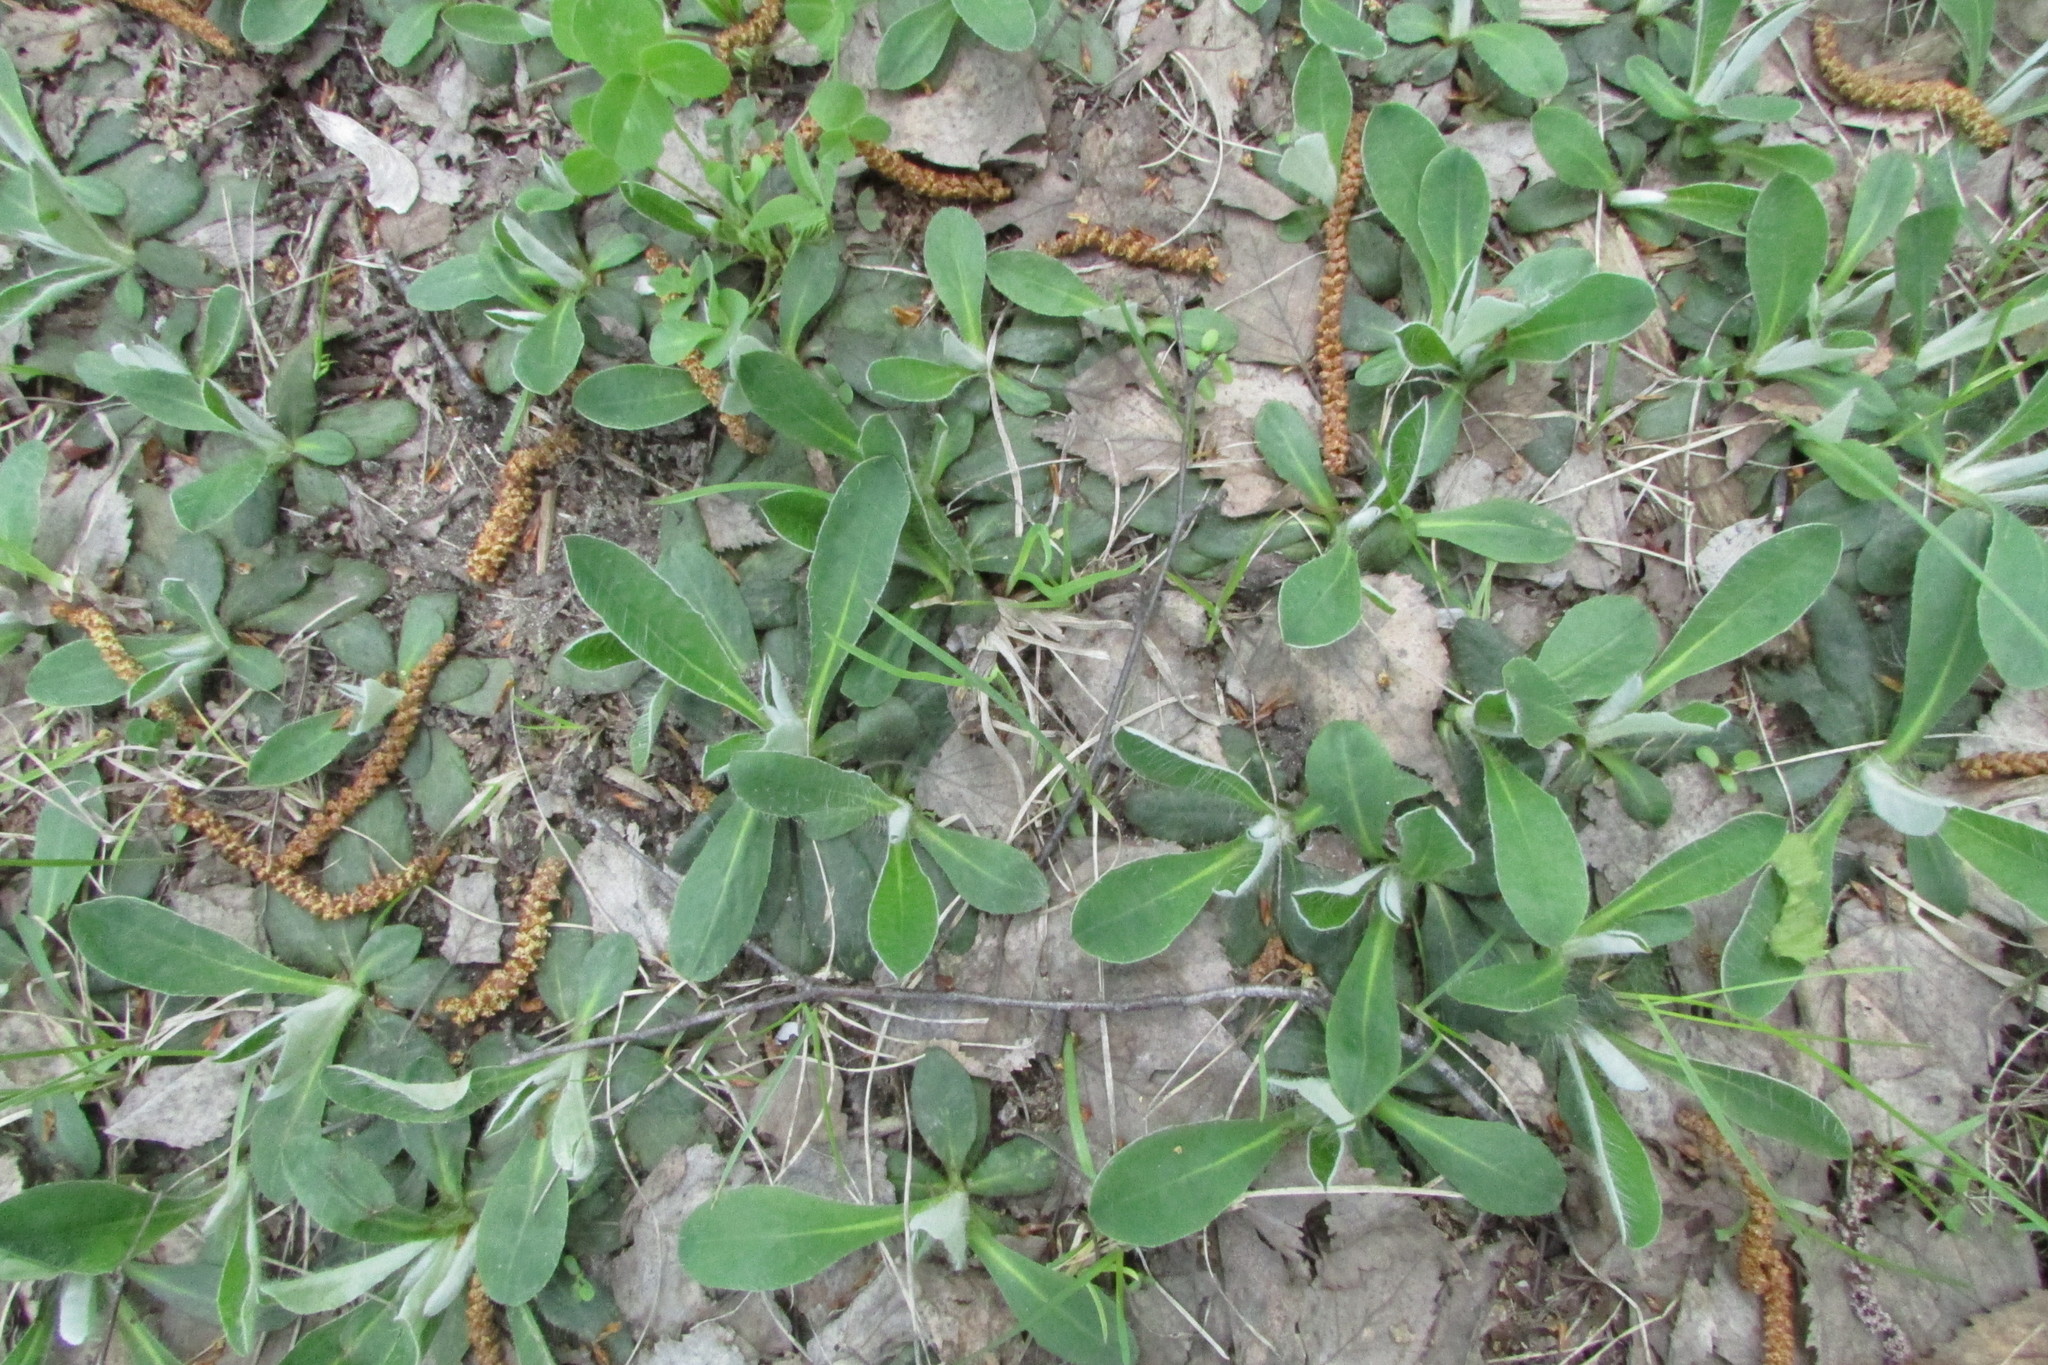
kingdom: Plantae
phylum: Tracheophyta
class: Magnoliopsida
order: Asterales
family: Asteraceae
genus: Pilosella
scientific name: Pilosella officinarum
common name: Mouse-ear hawkweed
